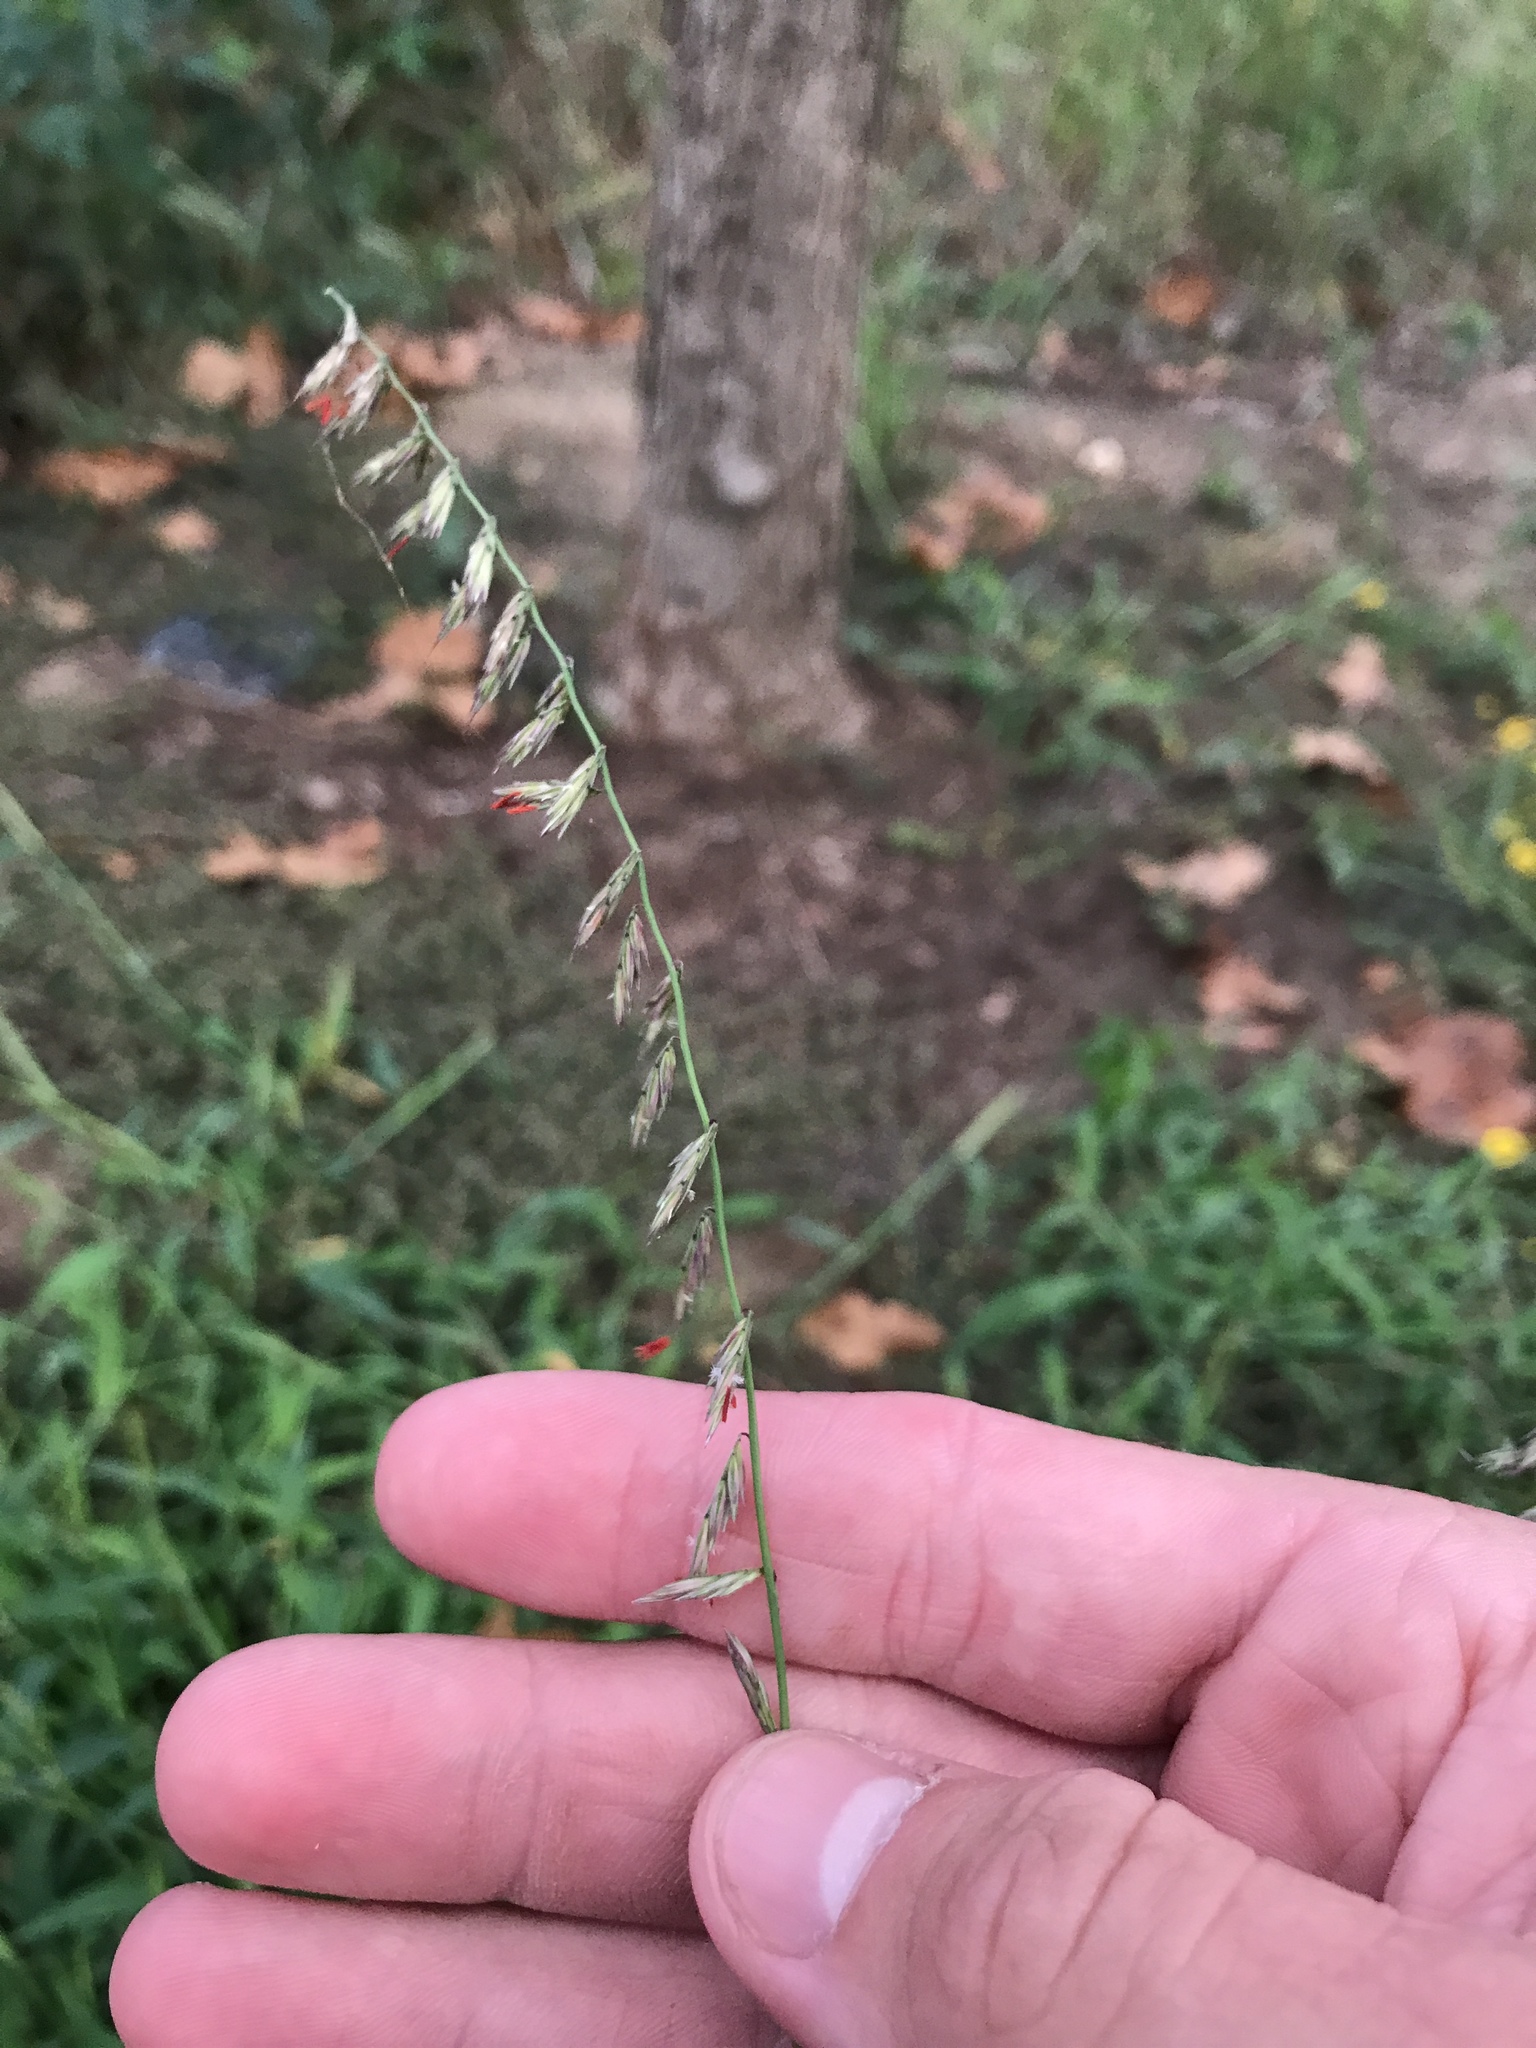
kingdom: Plantae
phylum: Tracheophyta
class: Liliopsida
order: Poales
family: Poaceae
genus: Bouteloua
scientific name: Bouteloua curtipendula
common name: Side-oats grama
